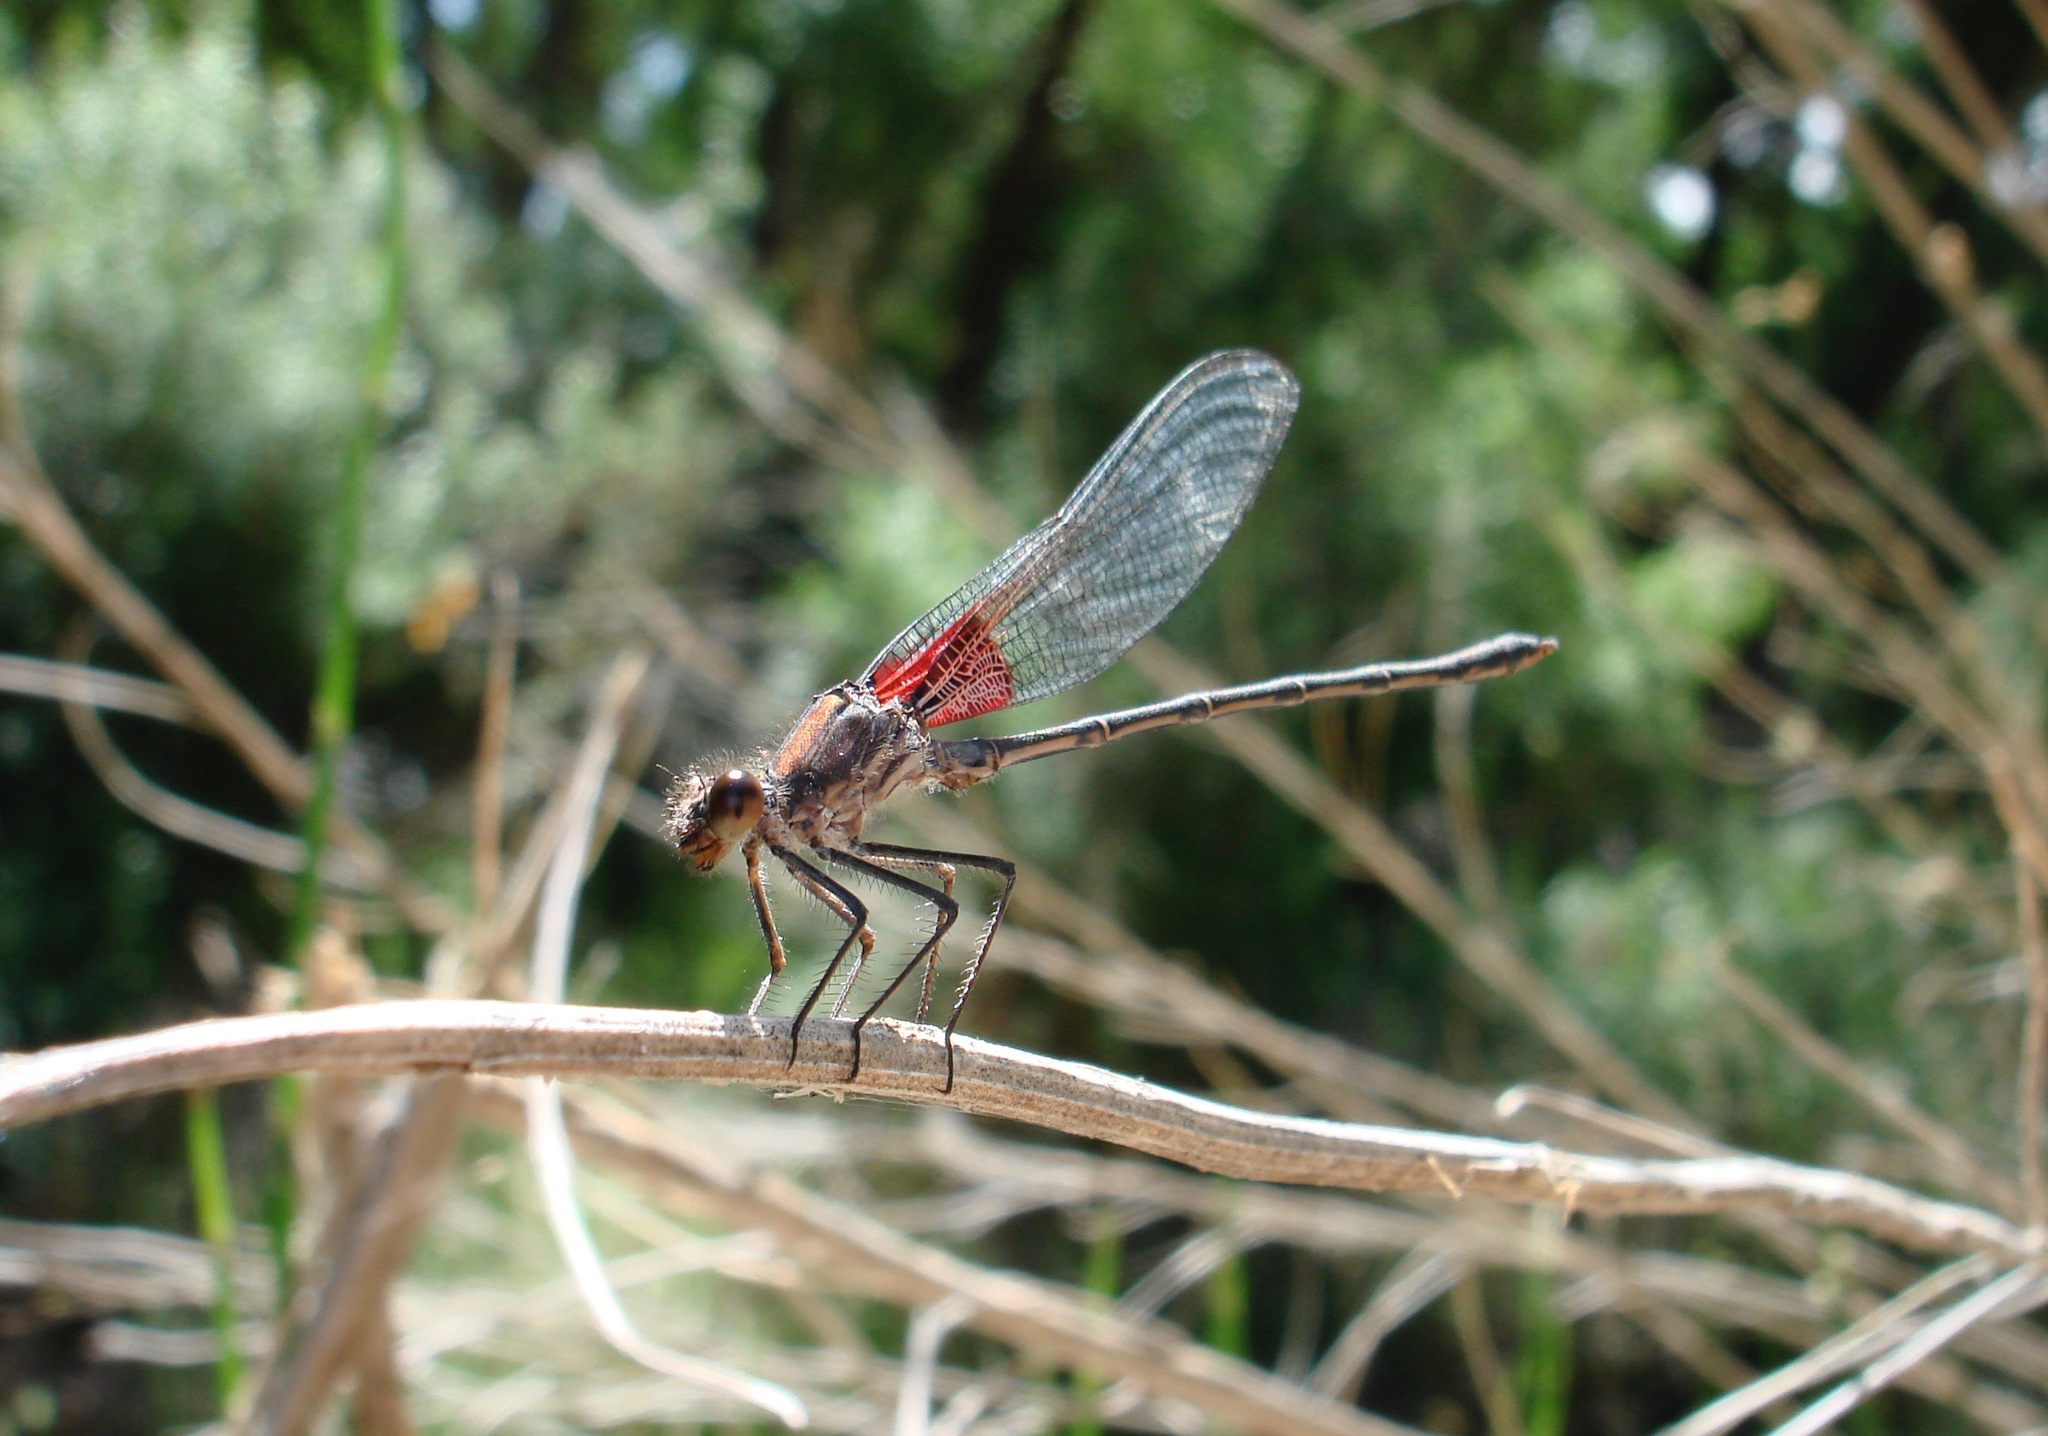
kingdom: Animalia
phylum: Arthropoda
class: Insecta
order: Odonata
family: Calopterygidae
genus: Hetaerina
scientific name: Hetaerina americana
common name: American rubyspot
